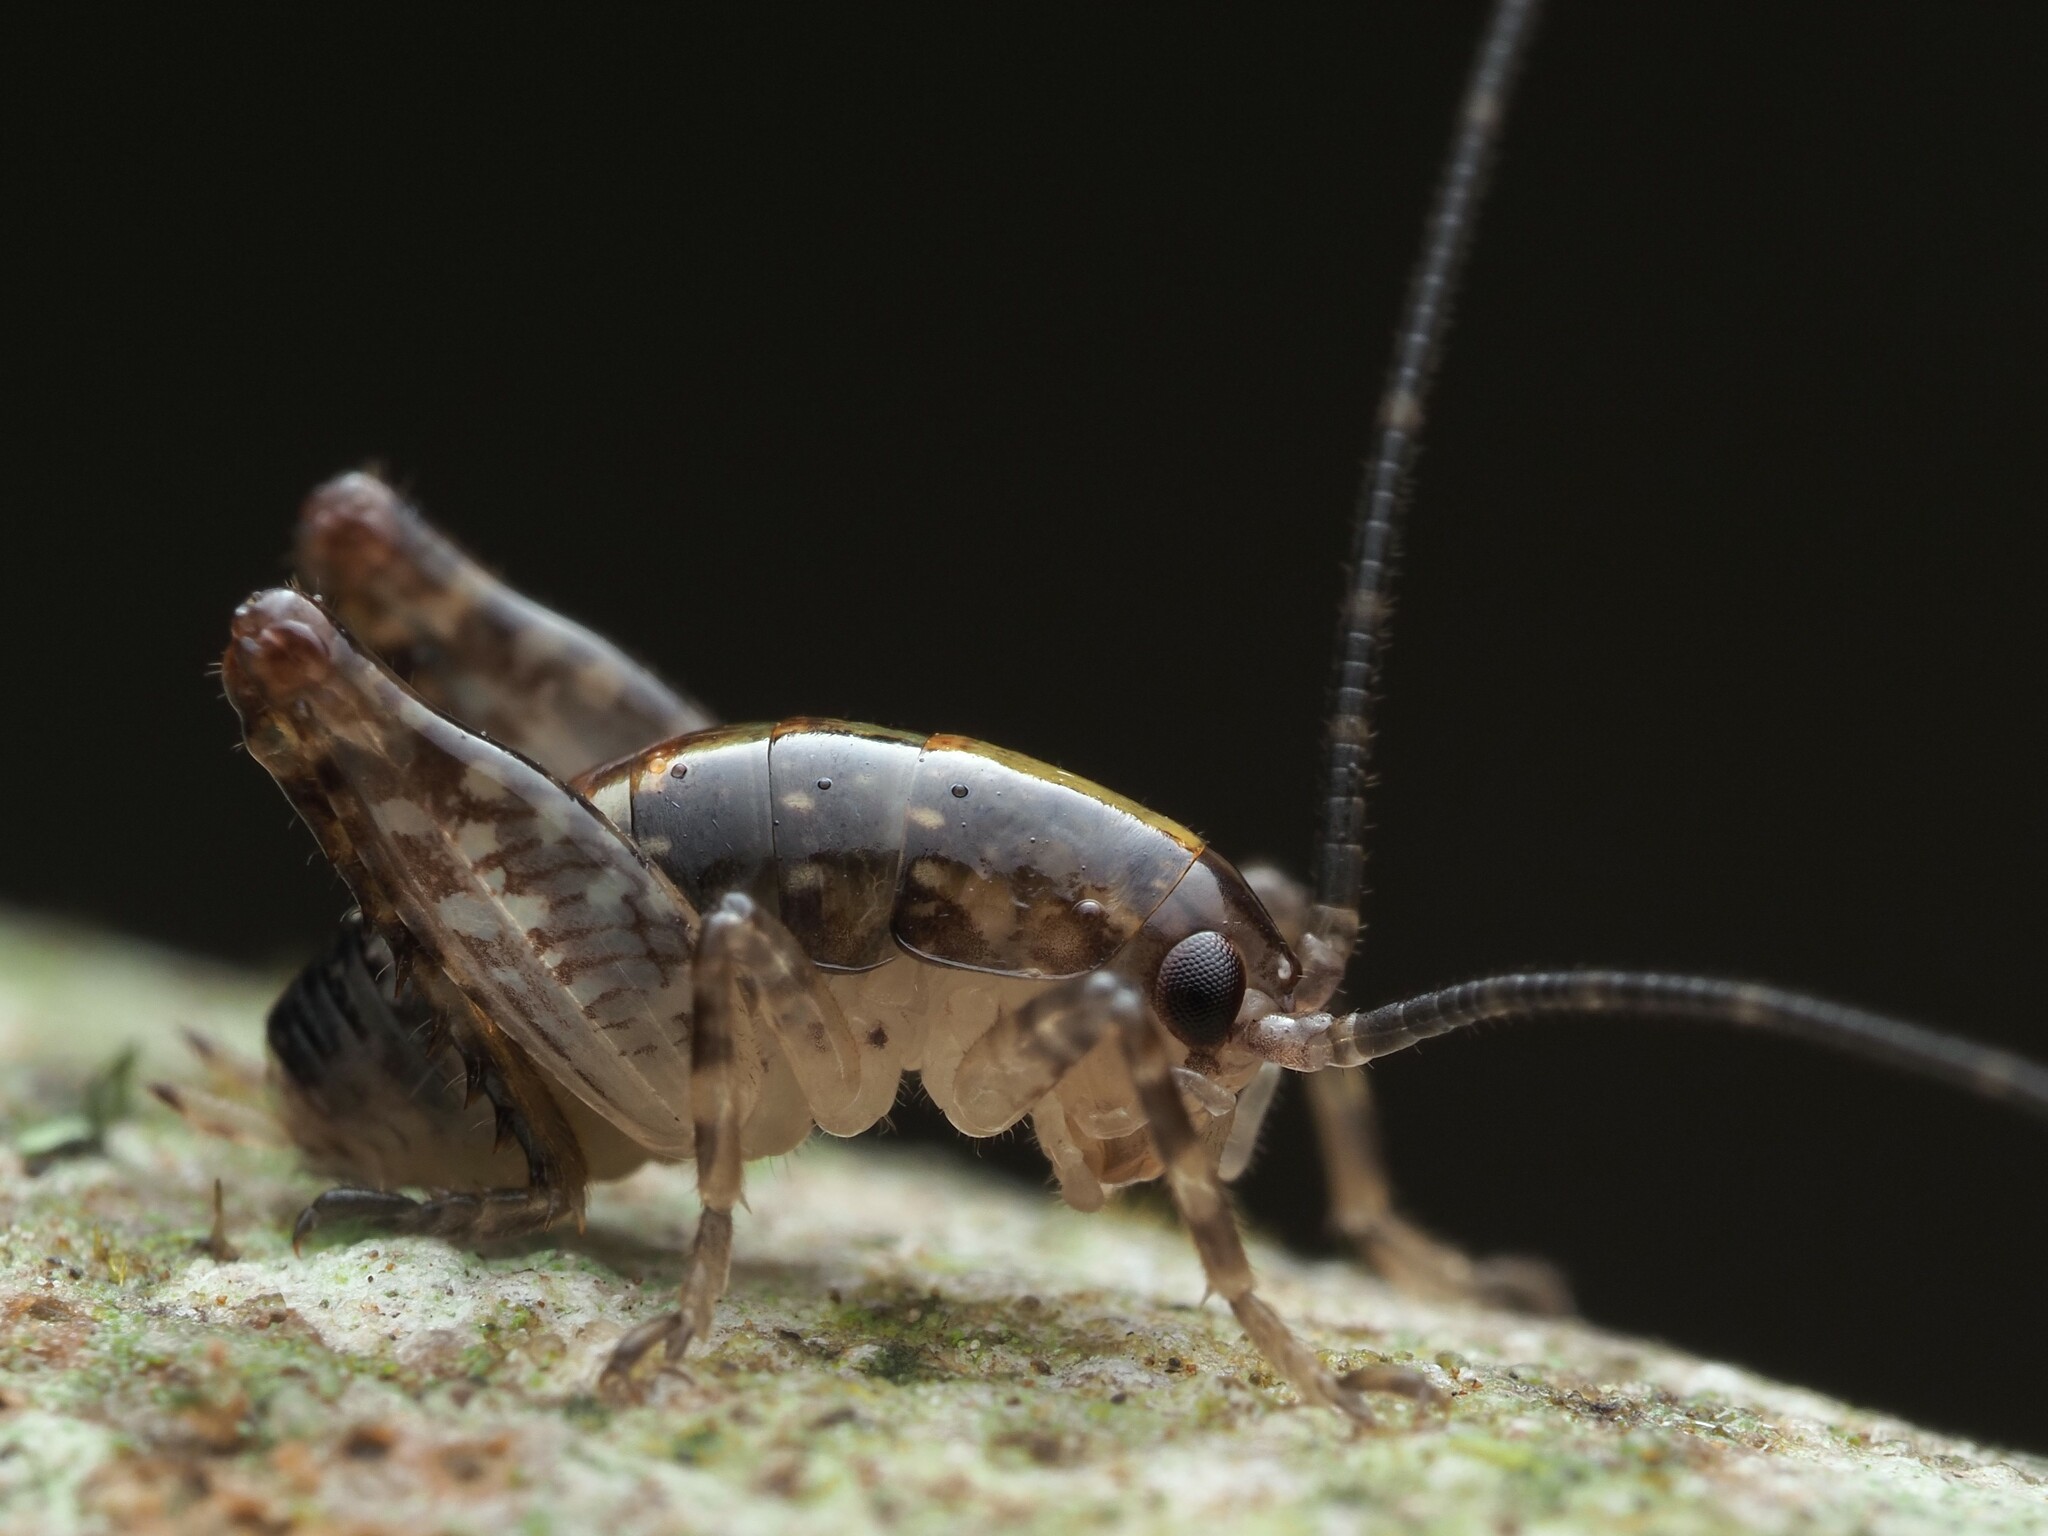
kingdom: Animalia
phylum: Arthropoda
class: Insecta
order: Orthoptera
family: Rhaphidophoridae
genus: Talitropsis
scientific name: Talitropsis sedilloti
